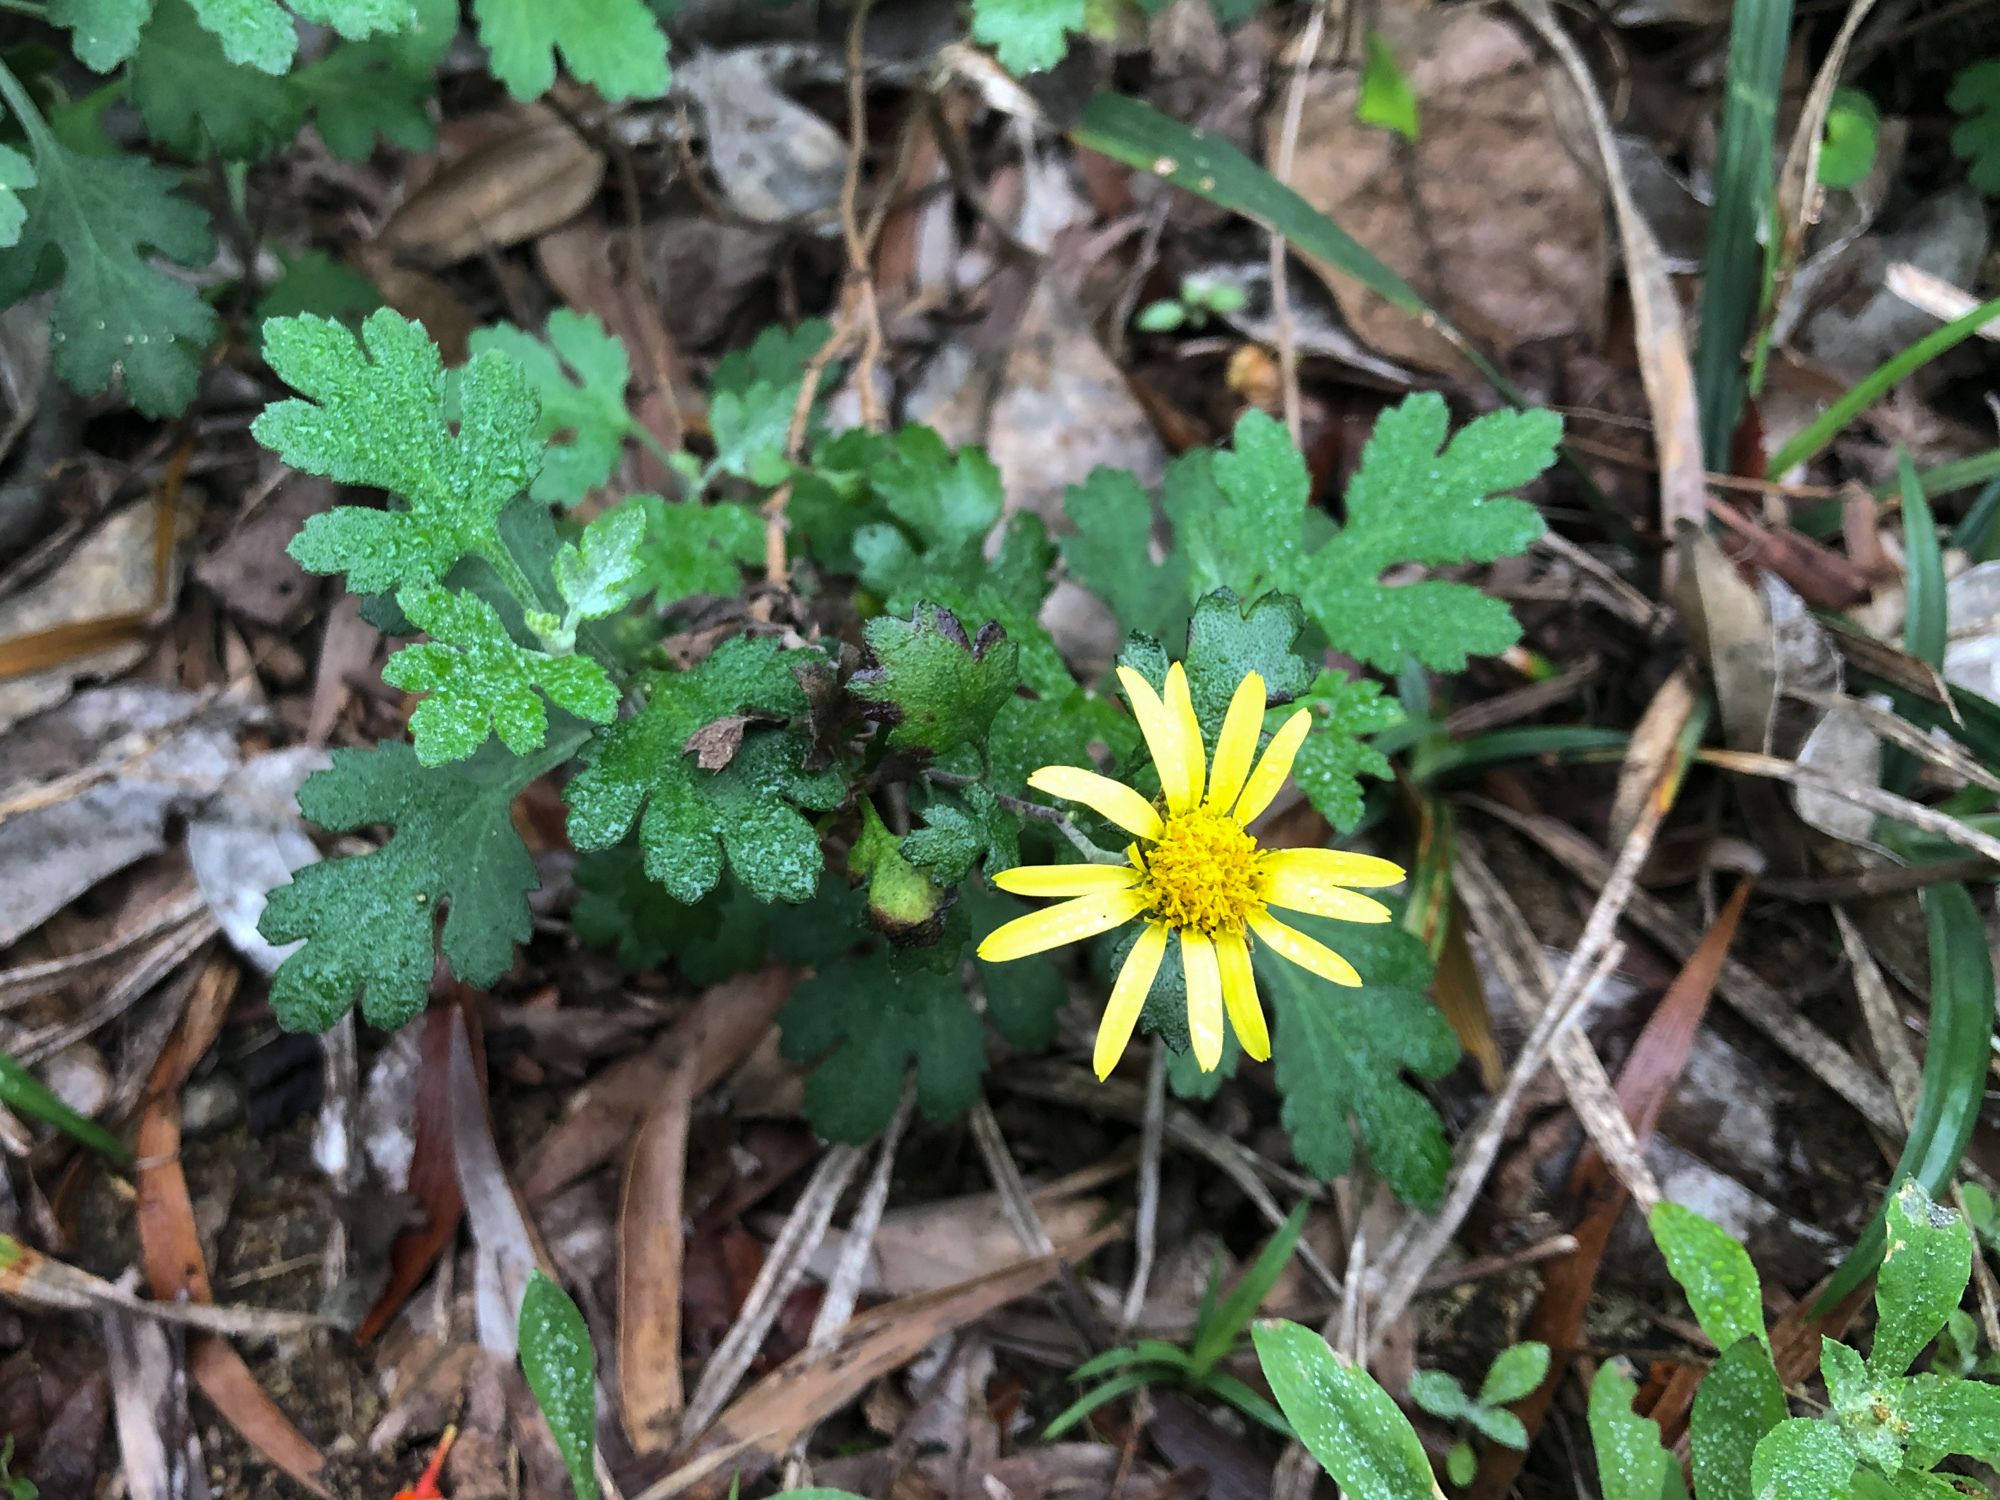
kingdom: Plantae
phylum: Tracheophyta
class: Magnoliopsida
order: Asterales
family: Asteraceae
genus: Chrysanthemum
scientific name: Chrysanthemum indicum
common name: Indian chrysanthemum
